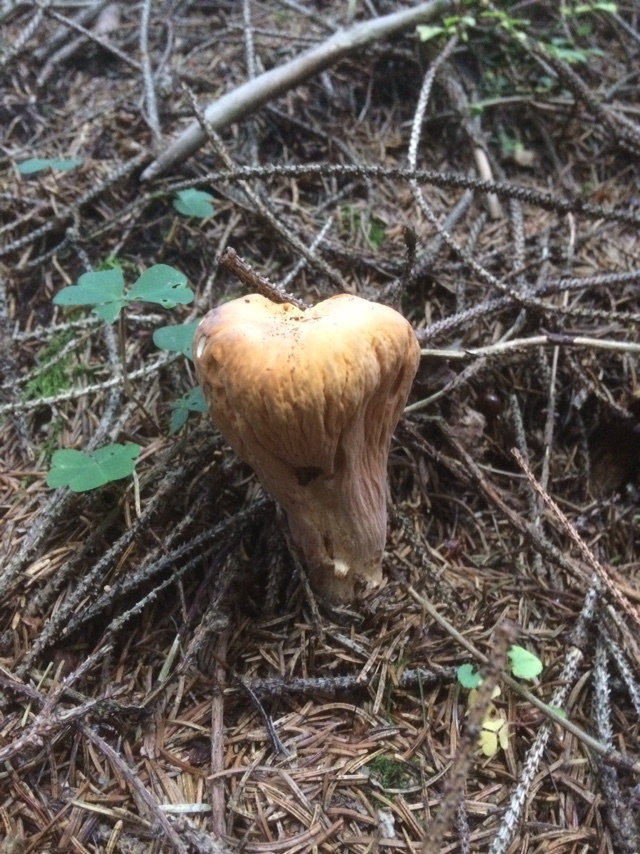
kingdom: Fungi
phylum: Basidiomycota
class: Agaricomycetes
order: Gomphales
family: Clavariadelphaceae
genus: Clavariadelphus
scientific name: Clavariadelphus truncatus
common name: Truncated club
